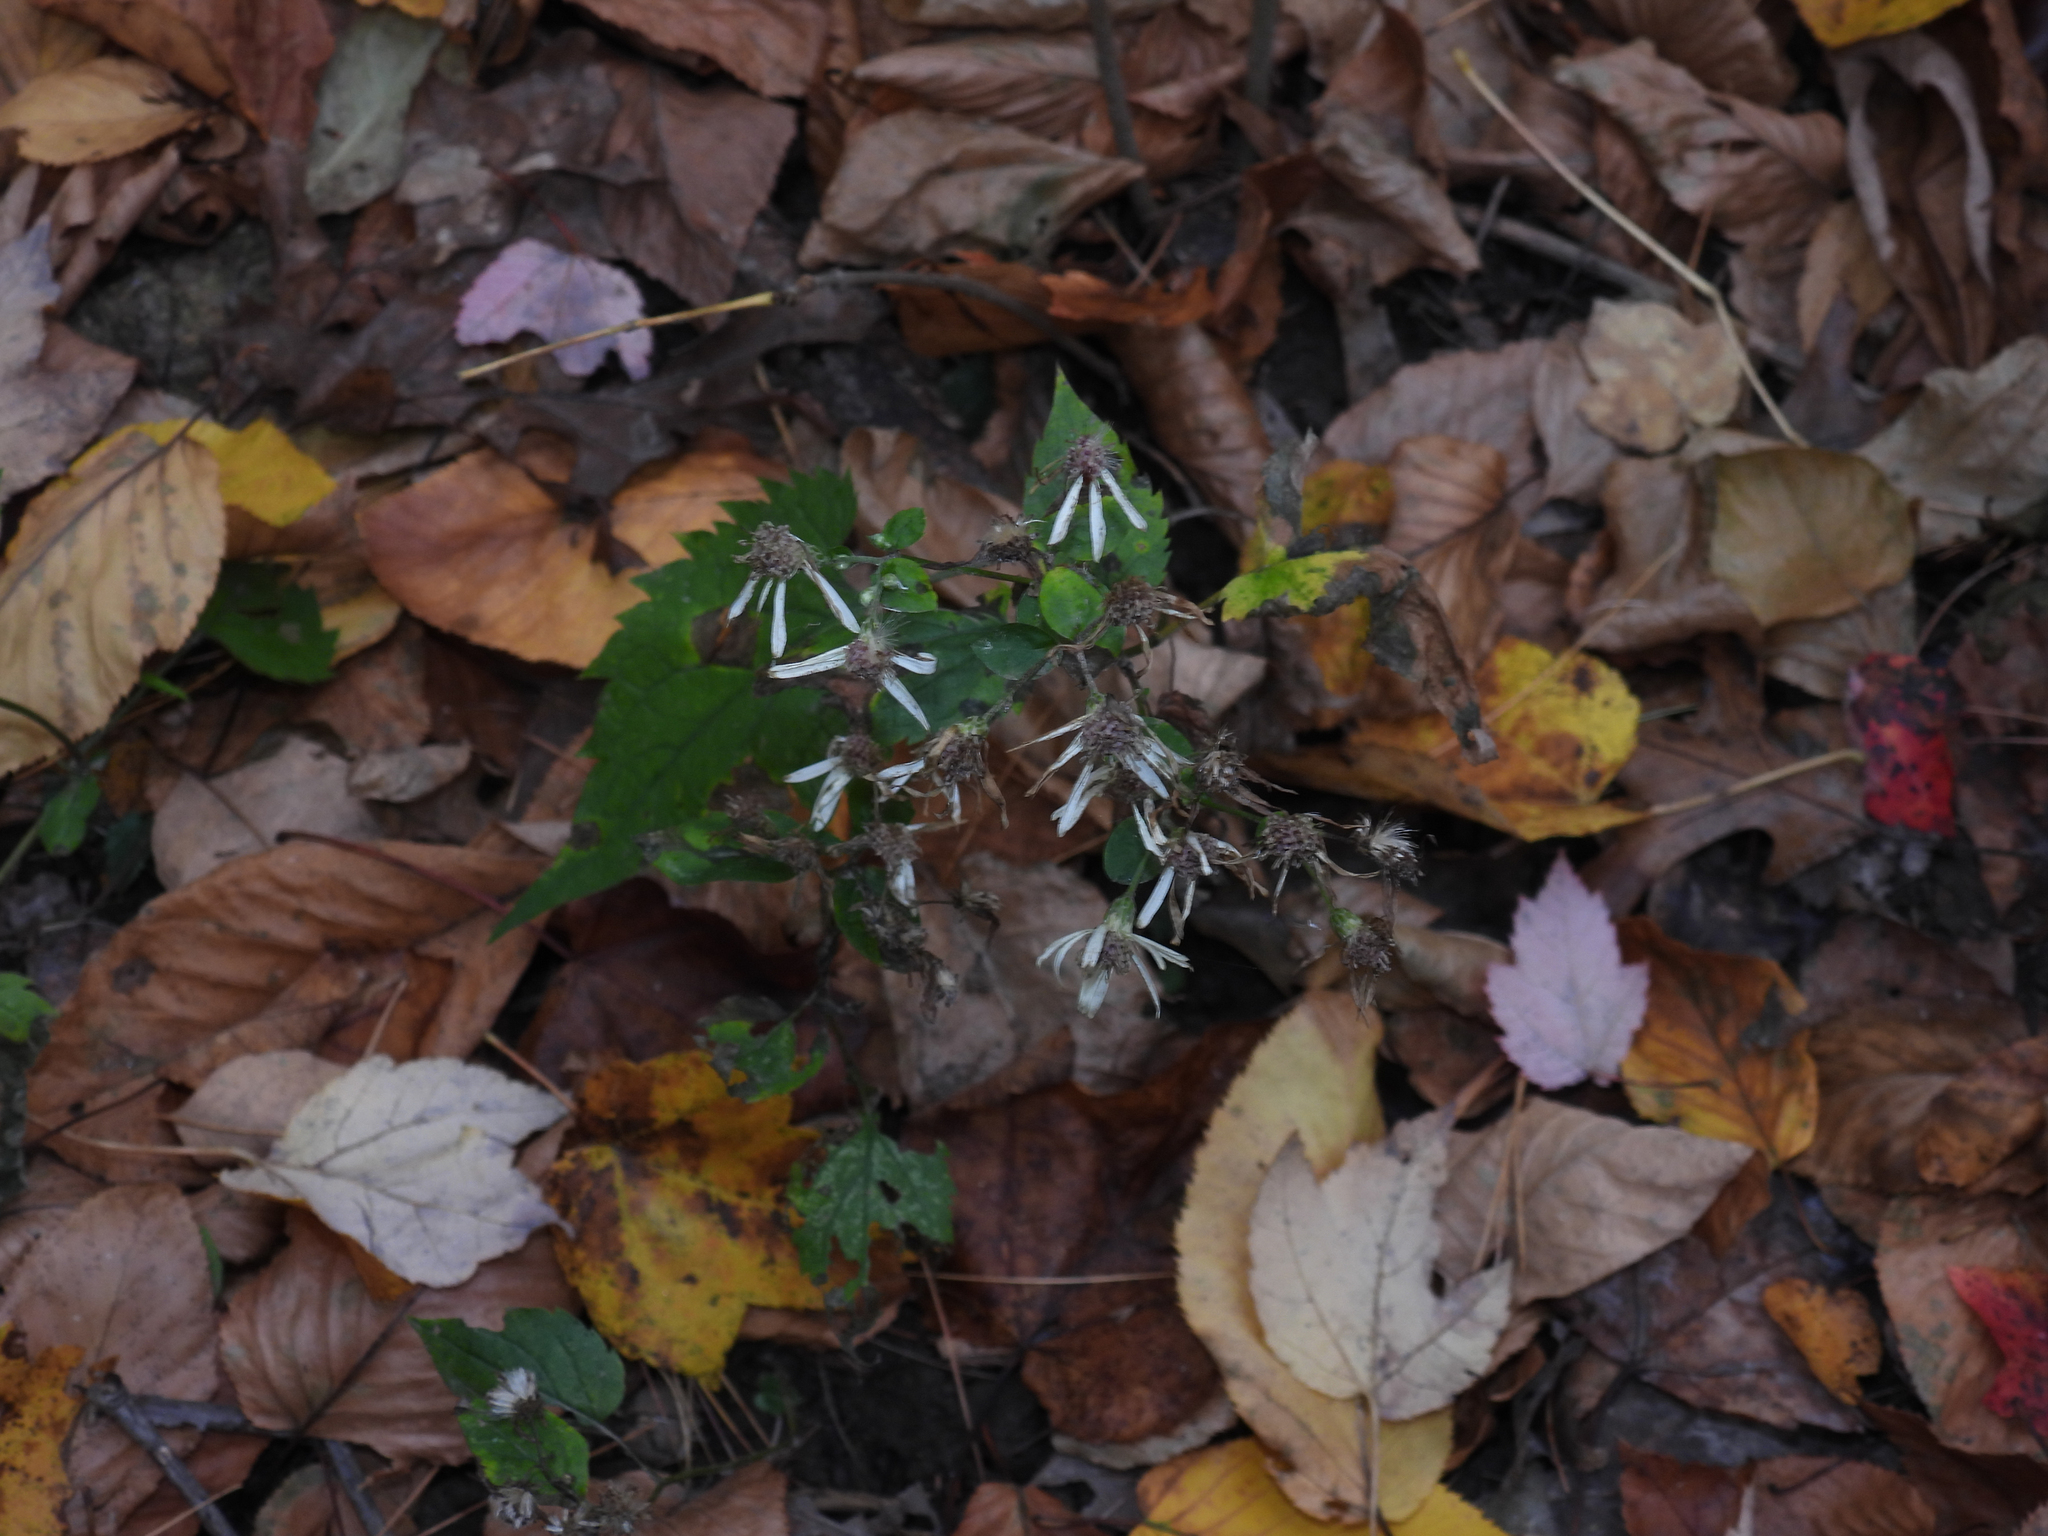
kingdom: Plantae
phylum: Tracheophyta
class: Magnoliopsida
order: Asterales
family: Asteraceae
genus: Eurybia
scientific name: Eurybia divaricata
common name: White wood aster
